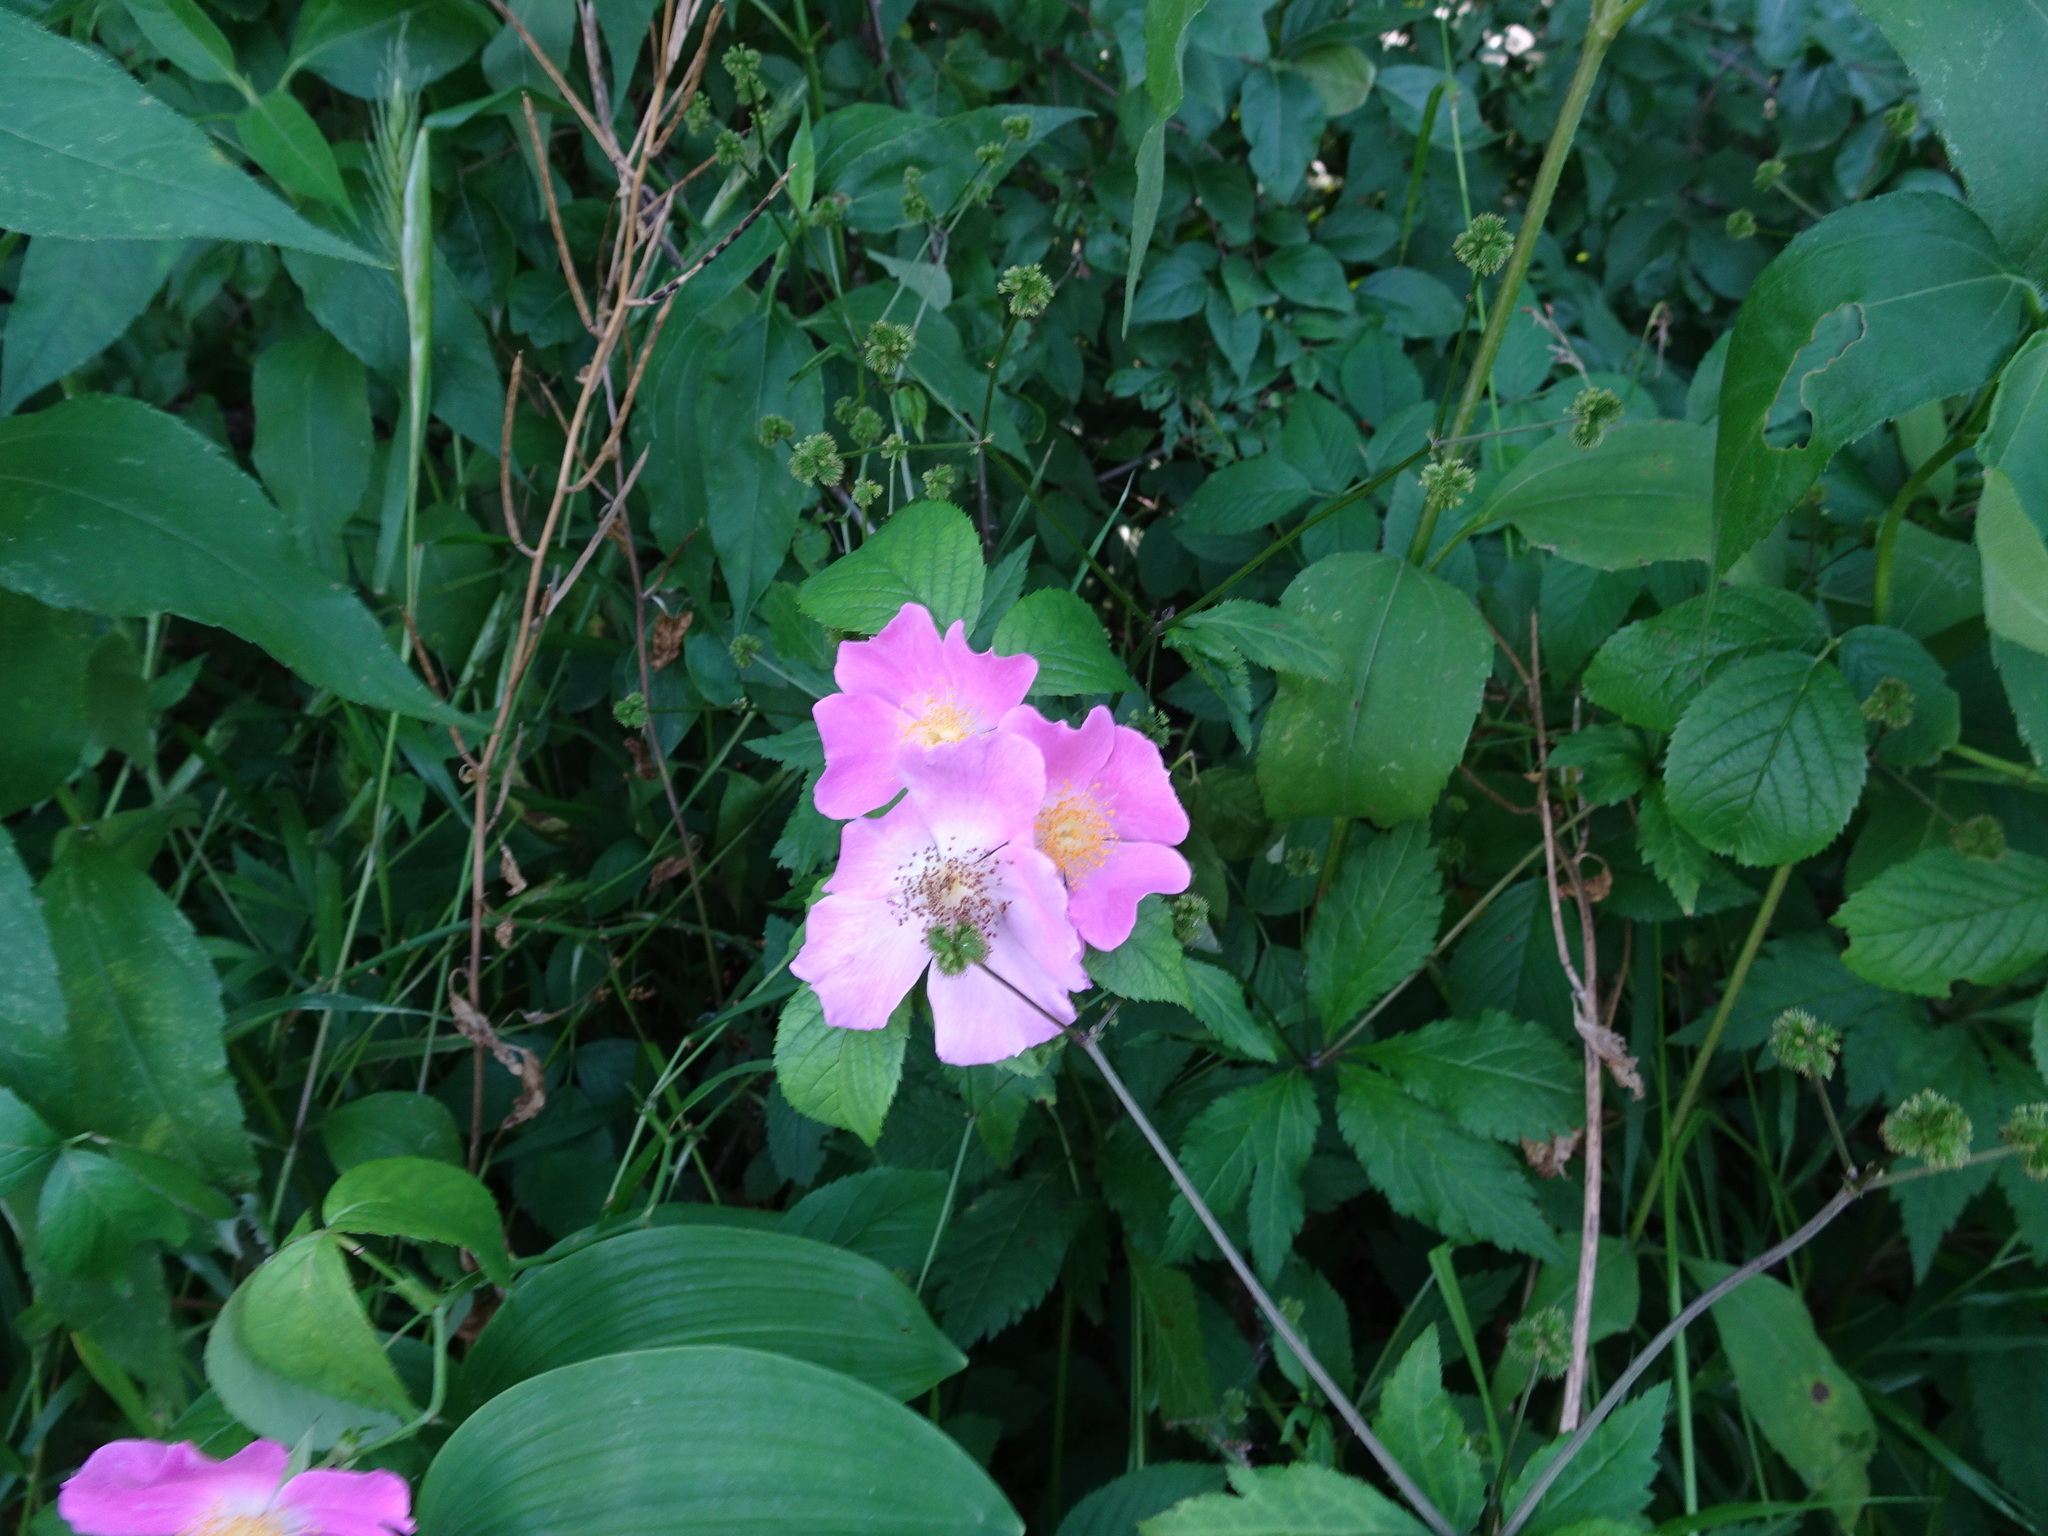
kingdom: Plantae
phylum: Tracheophyta
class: Magnoliopsida
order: Rosales
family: Rosaceae
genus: Rosa
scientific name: Rosa setigera
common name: Prairie rose
